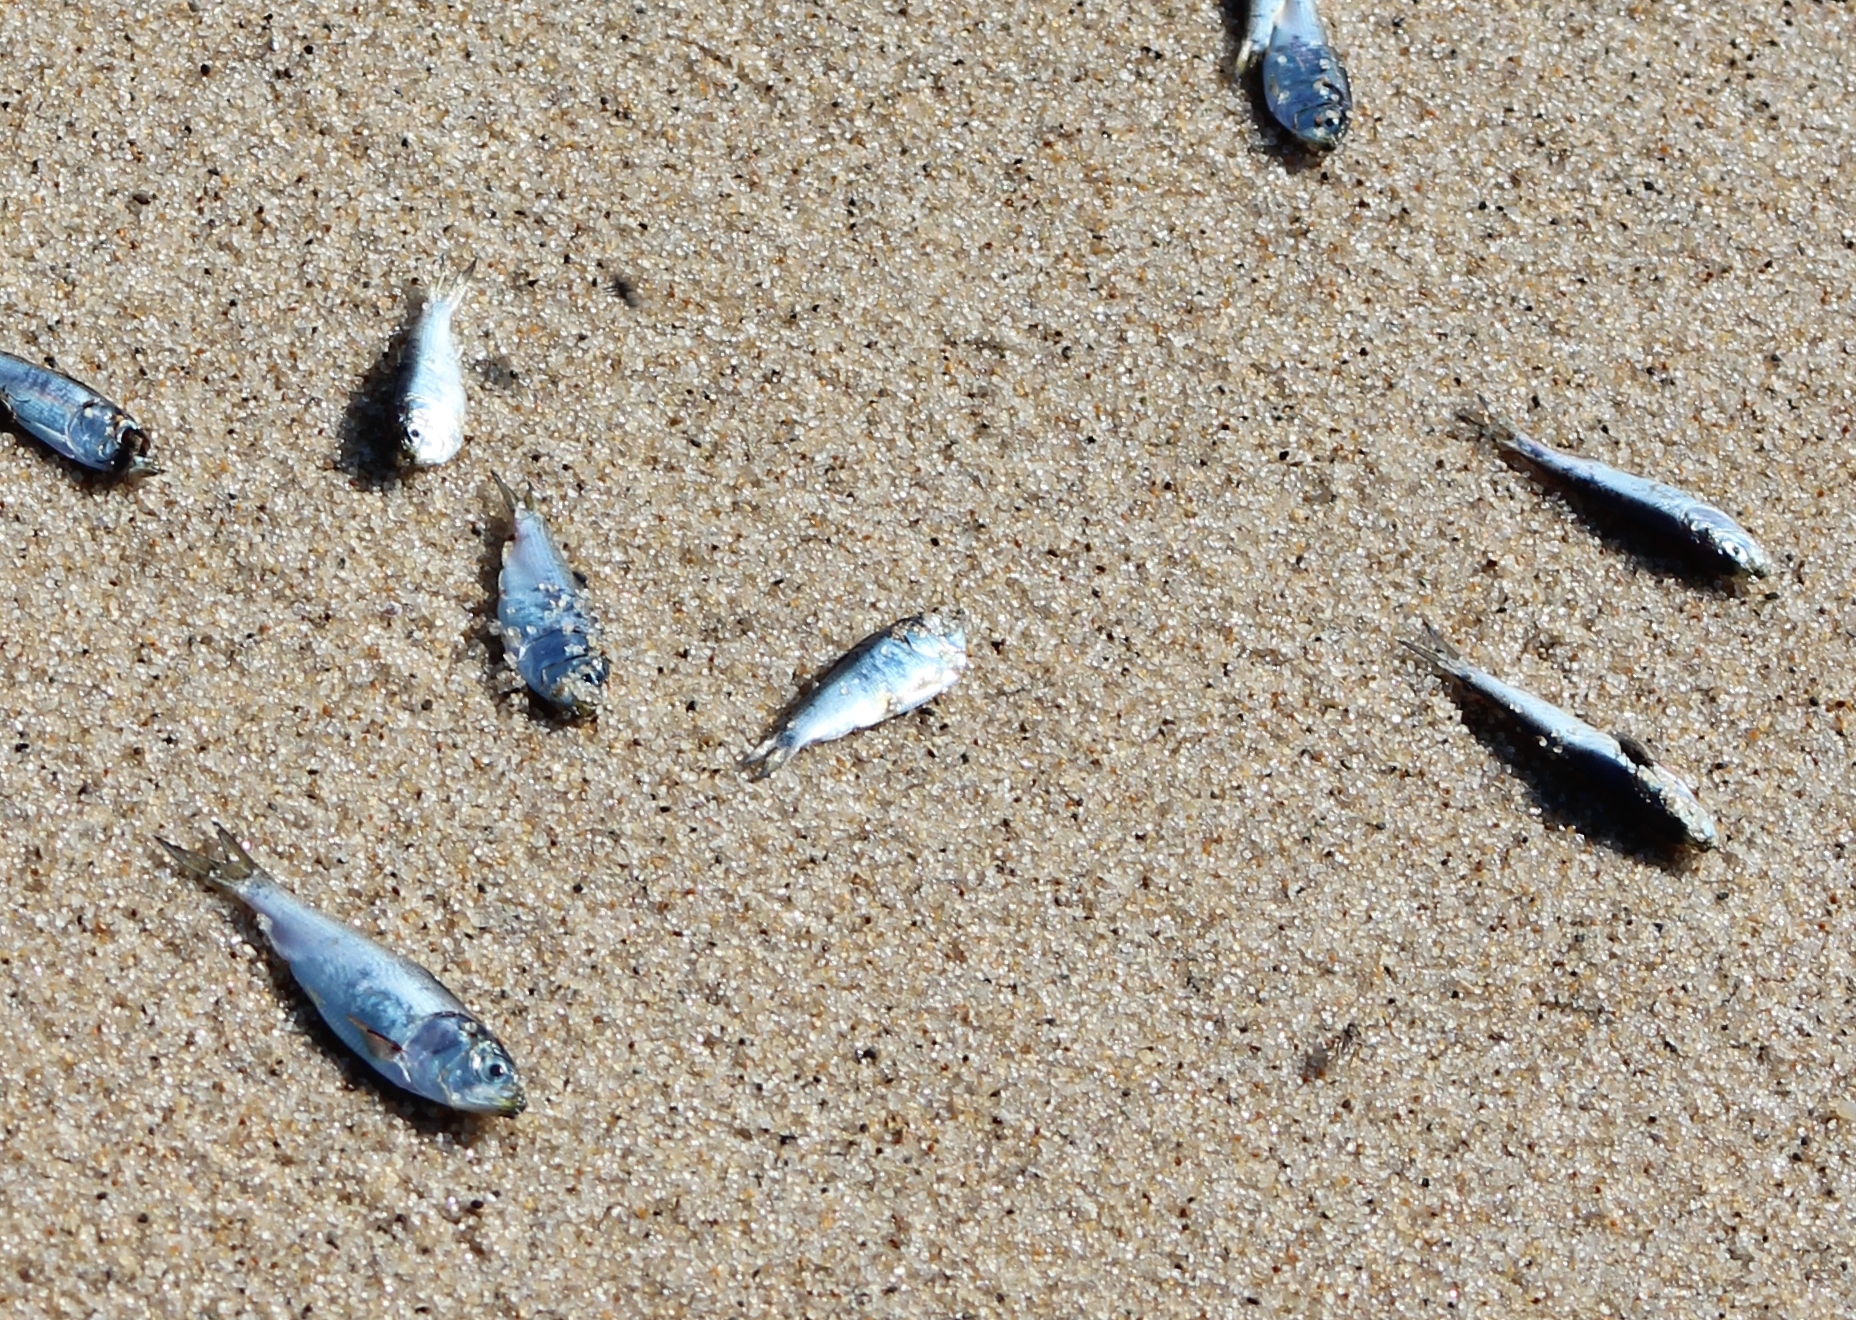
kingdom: Animalia
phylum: Chordata
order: Clupeiformes
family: Clupeidae
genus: Brevoortia
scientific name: Brevoortia tyrannus
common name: Atlantic menhaden
